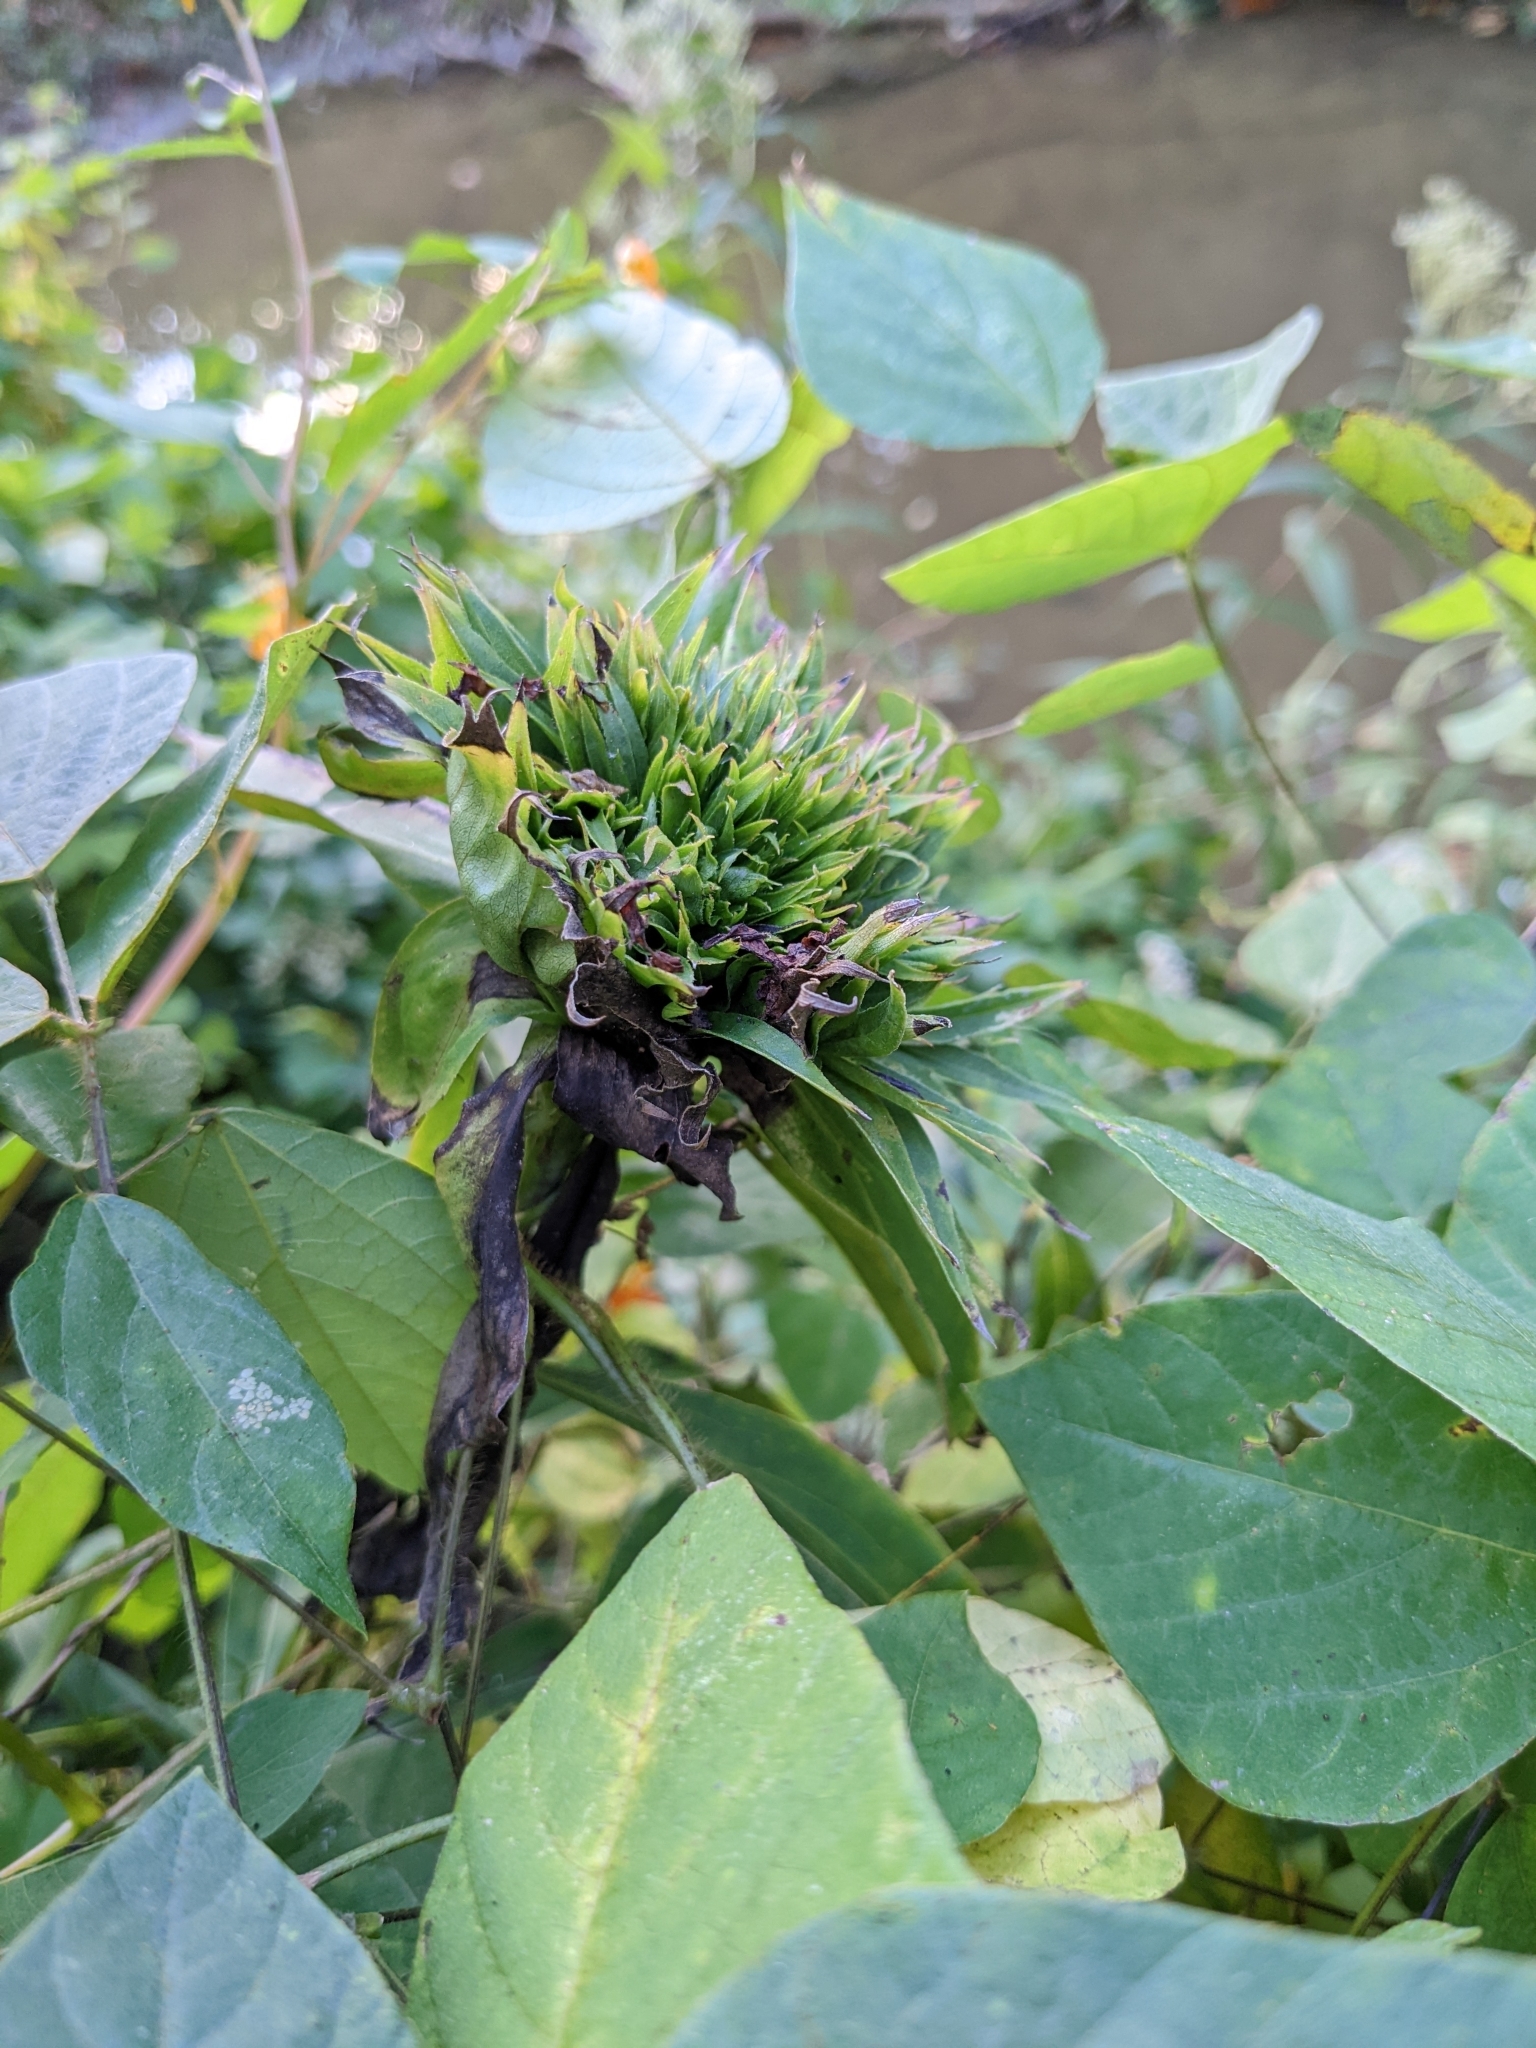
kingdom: Animalia
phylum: Arthropoda
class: Insecta
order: Diptera
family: Cecidomyiidae
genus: Rhopalomyia
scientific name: Rhopalomyia capitata
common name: Giant goldenrod bunch gall midge
